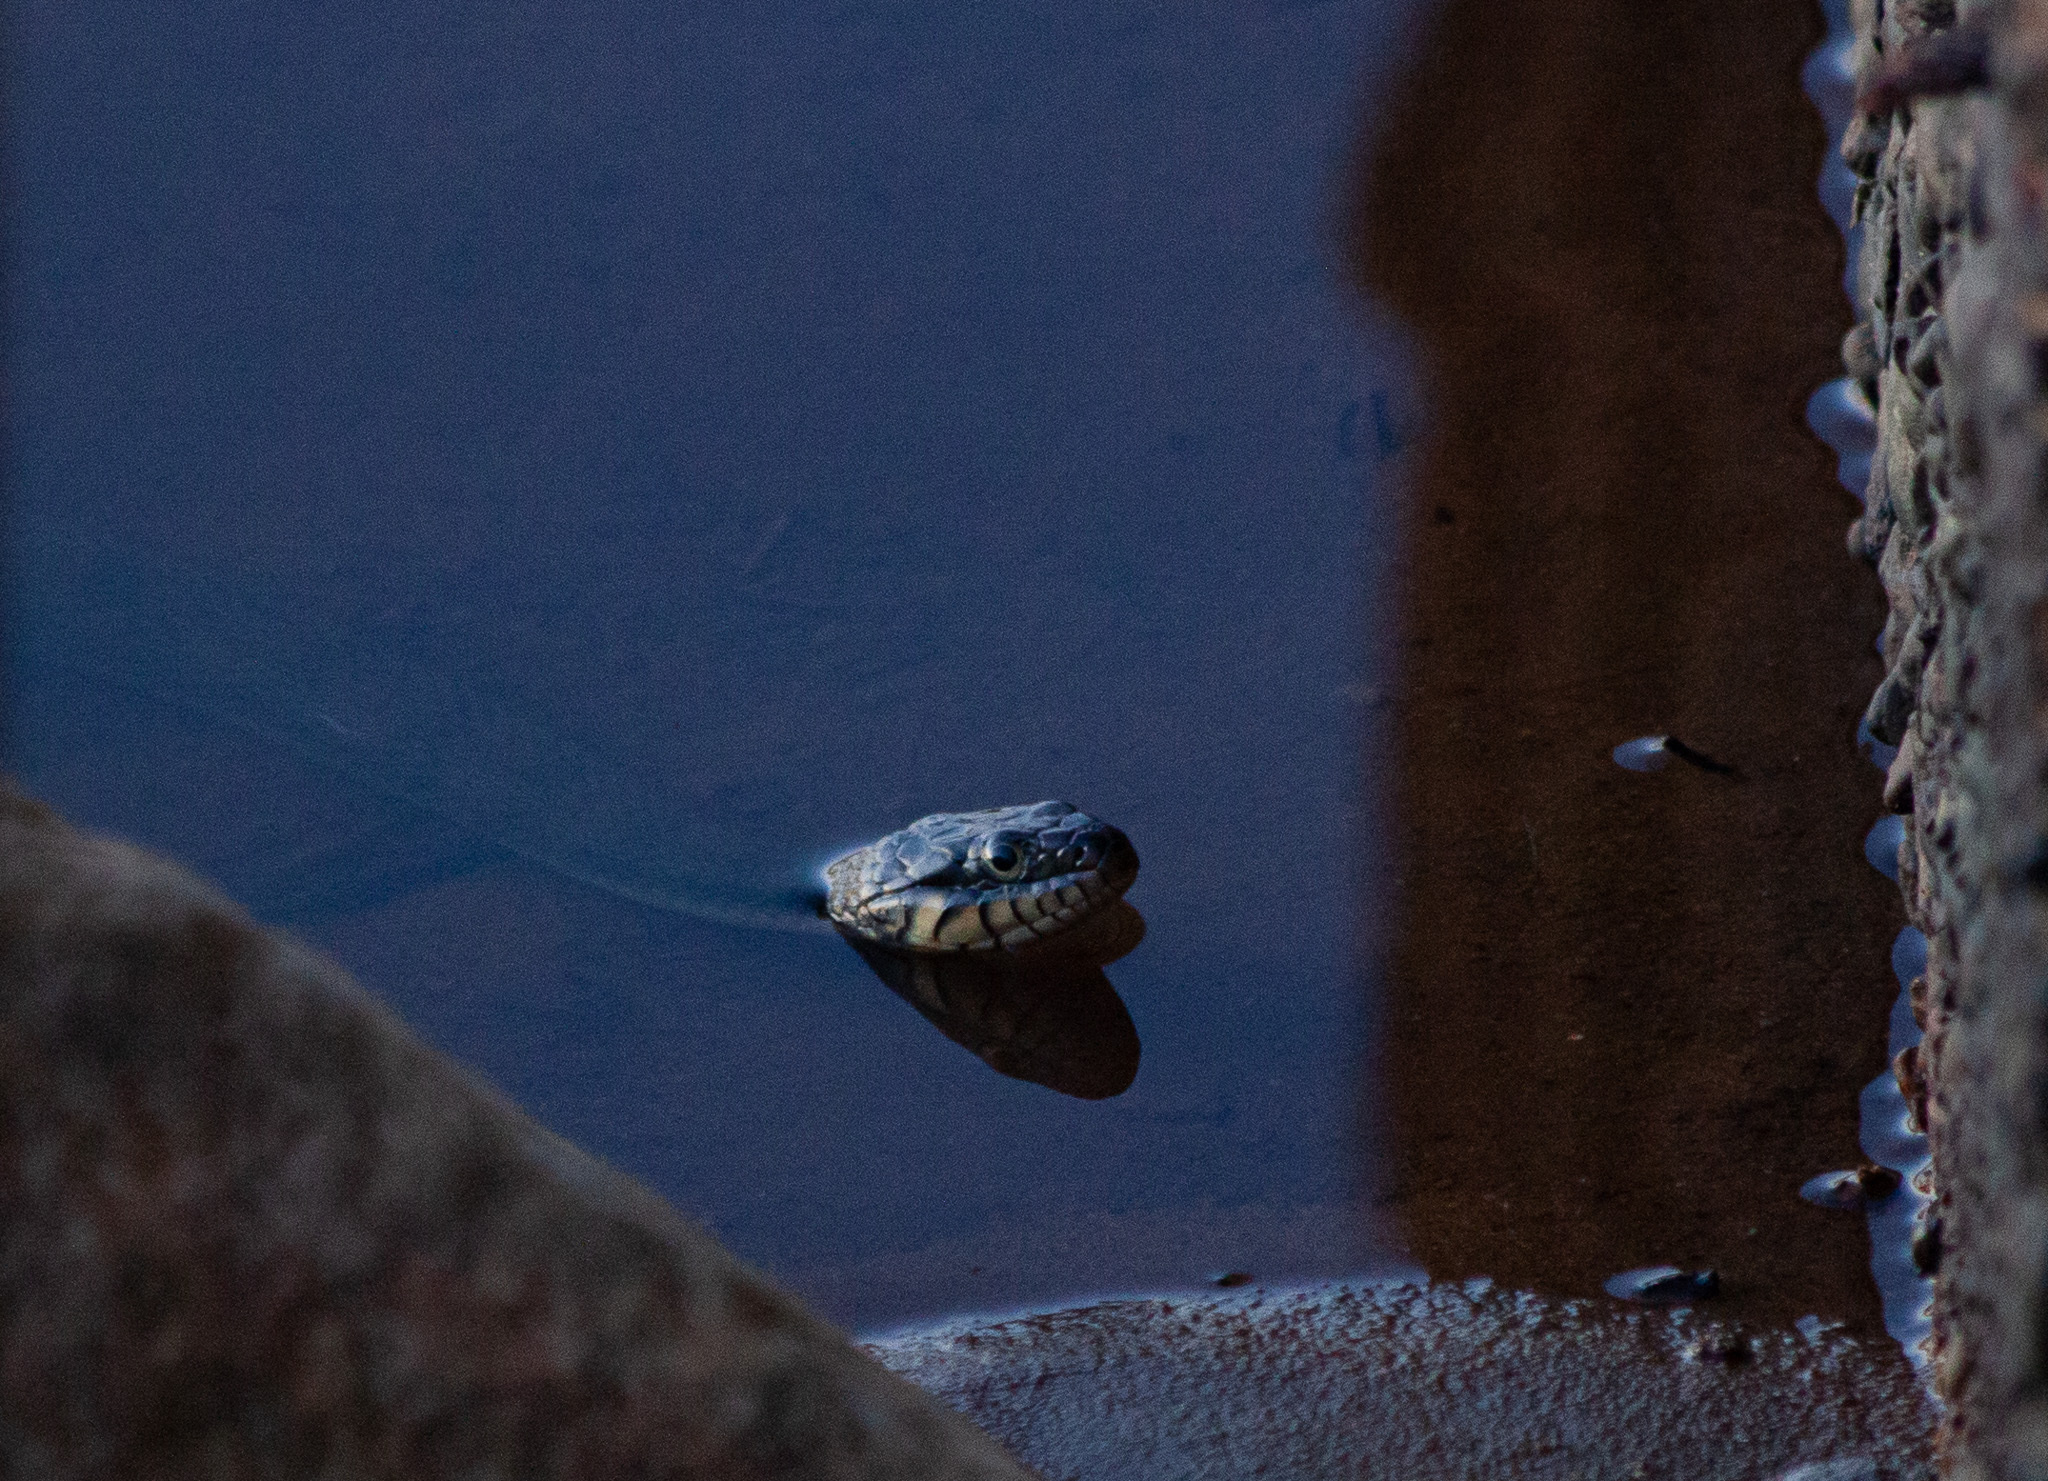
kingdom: Animalia
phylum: Chordata
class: Squamata
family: Colubridae
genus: Nerodia
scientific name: Nerodia erythrogaster
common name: Plainbelly water snake
